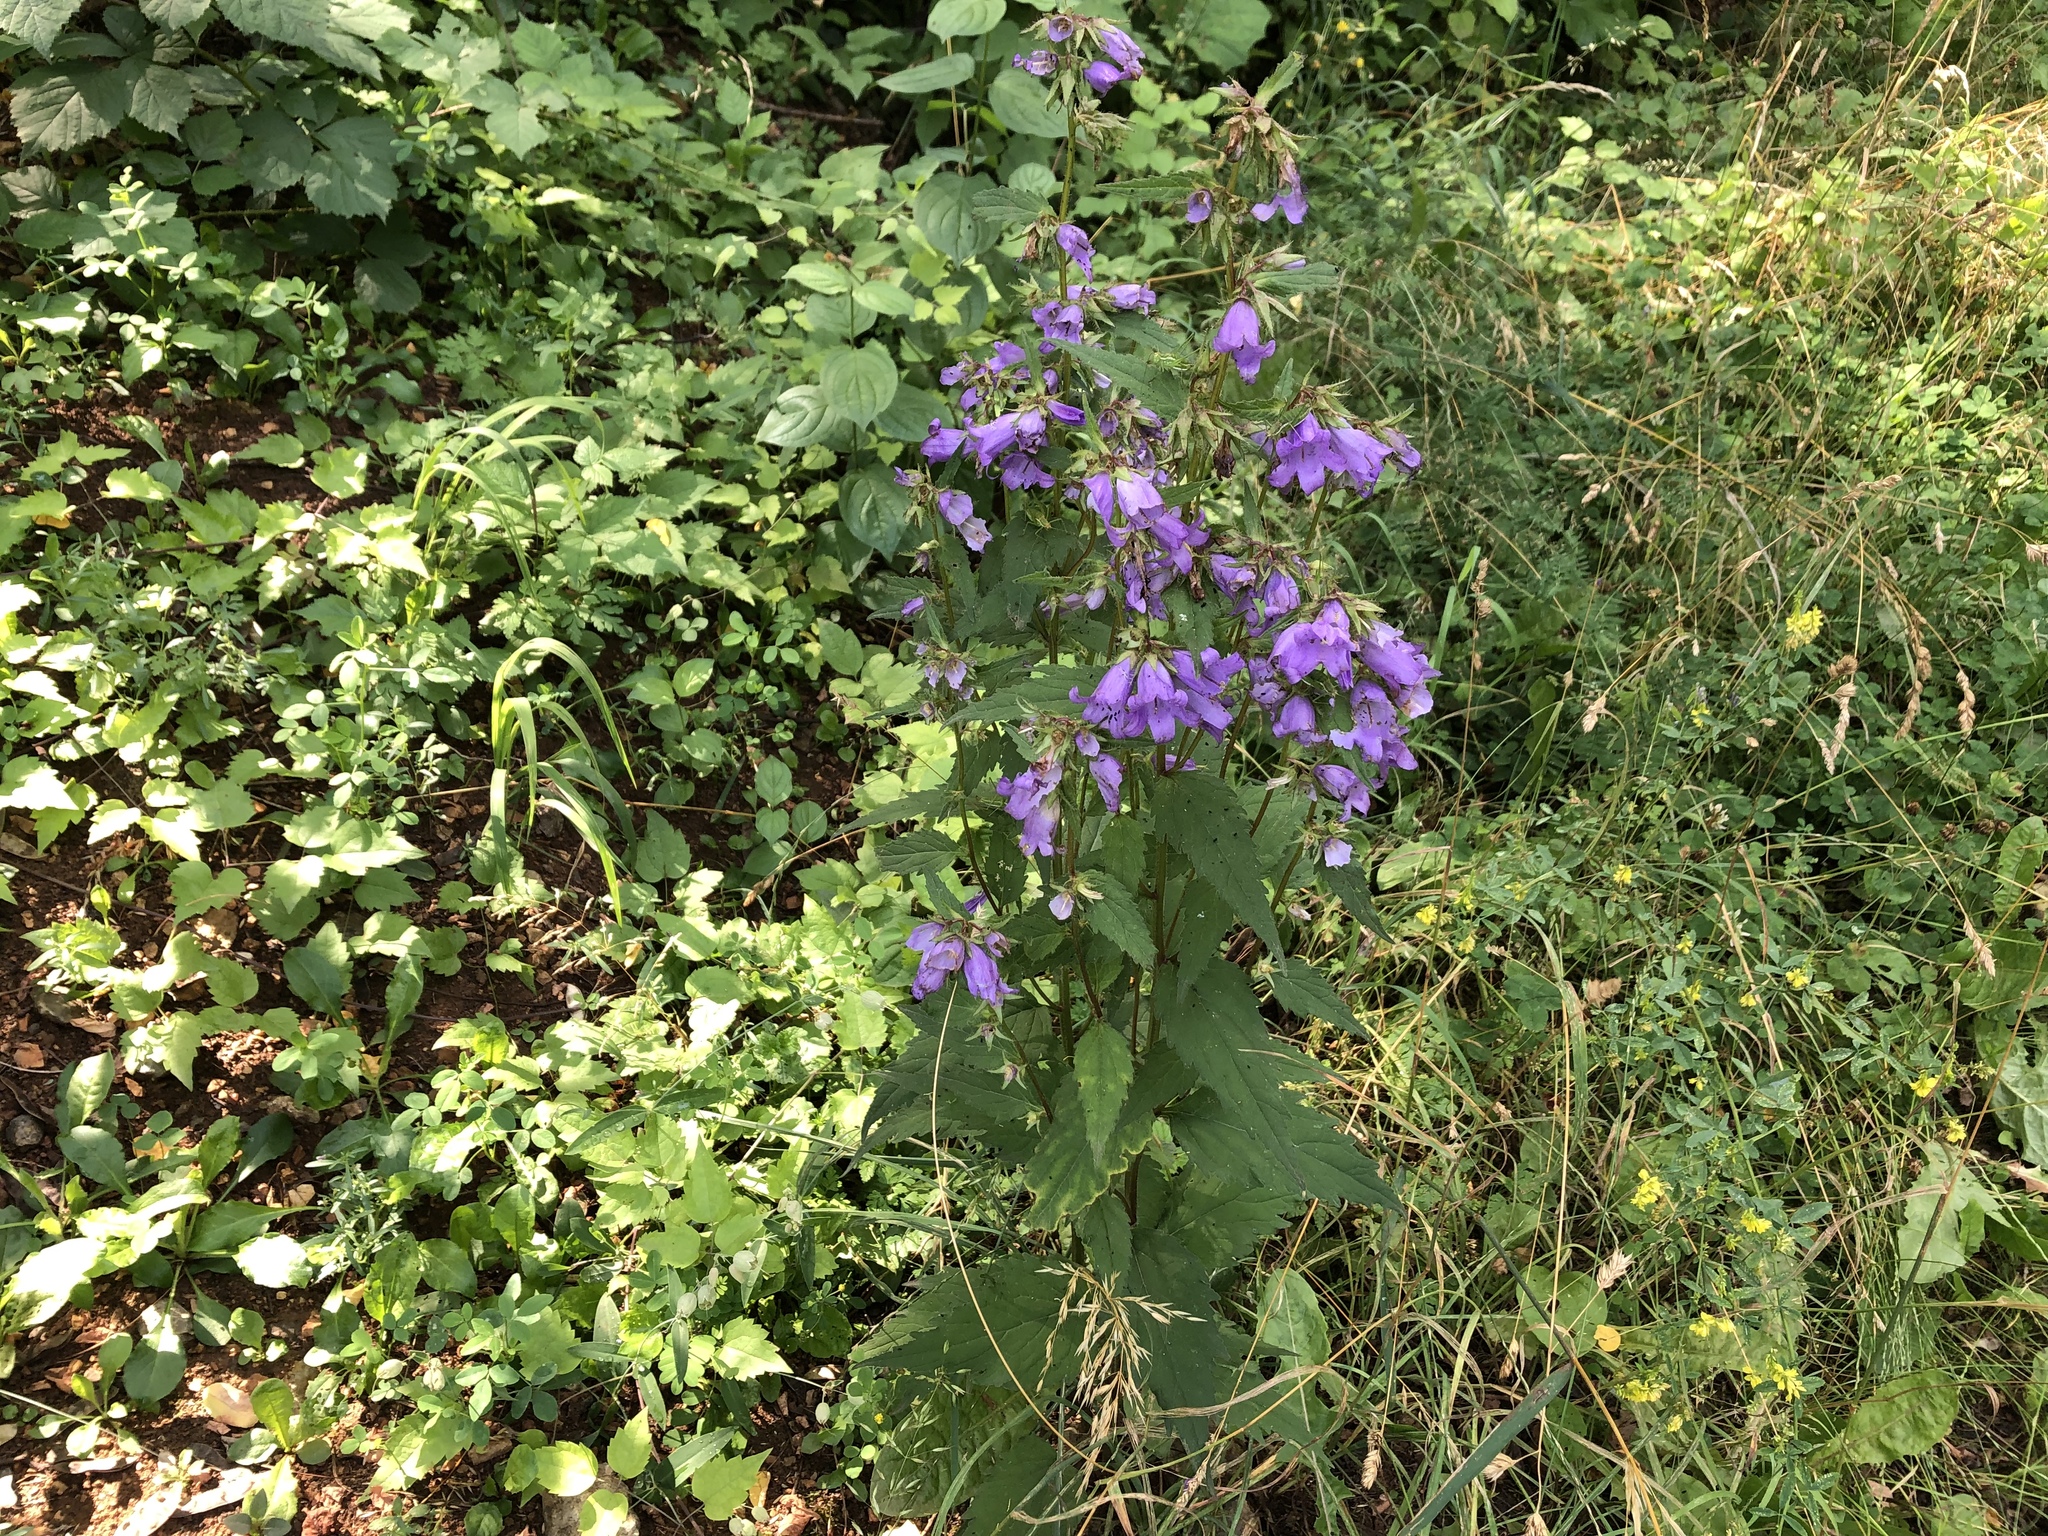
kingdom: Plantae
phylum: Tracheophyta
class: Magnoliopsida
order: Asterales
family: Campanulaceae
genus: Campanula
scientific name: Campanula trachelium
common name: Nettle-leaved bellflower
